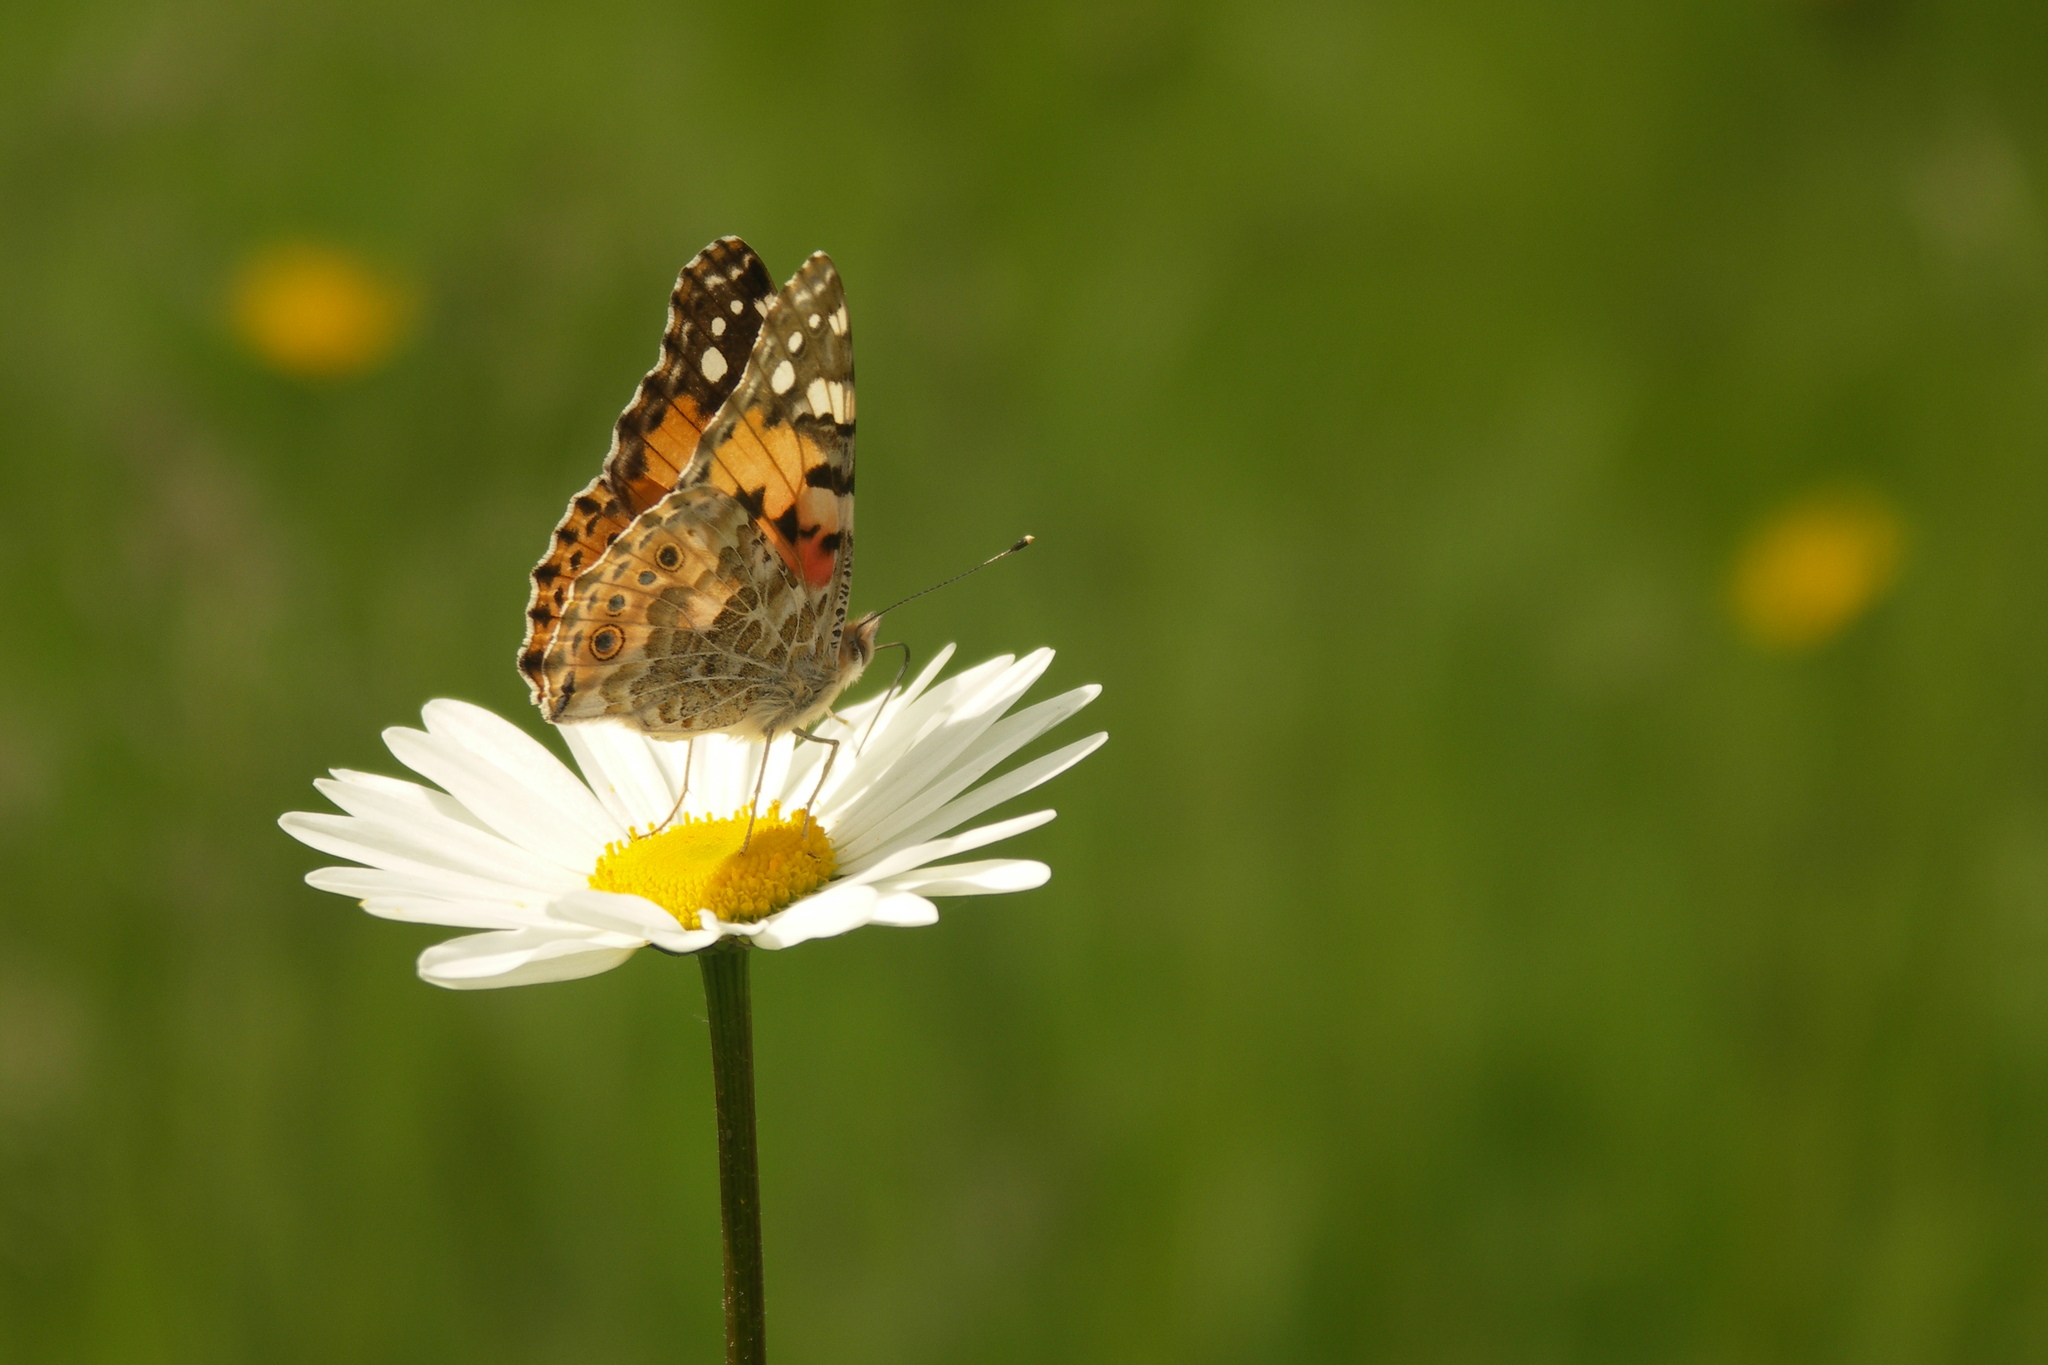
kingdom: Animalia
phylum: Arthropoda
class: Insecta
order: Lepidoptera
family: Nymphalidae
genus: Vanessa
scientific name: Vanessa cardui
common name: Painted lady
